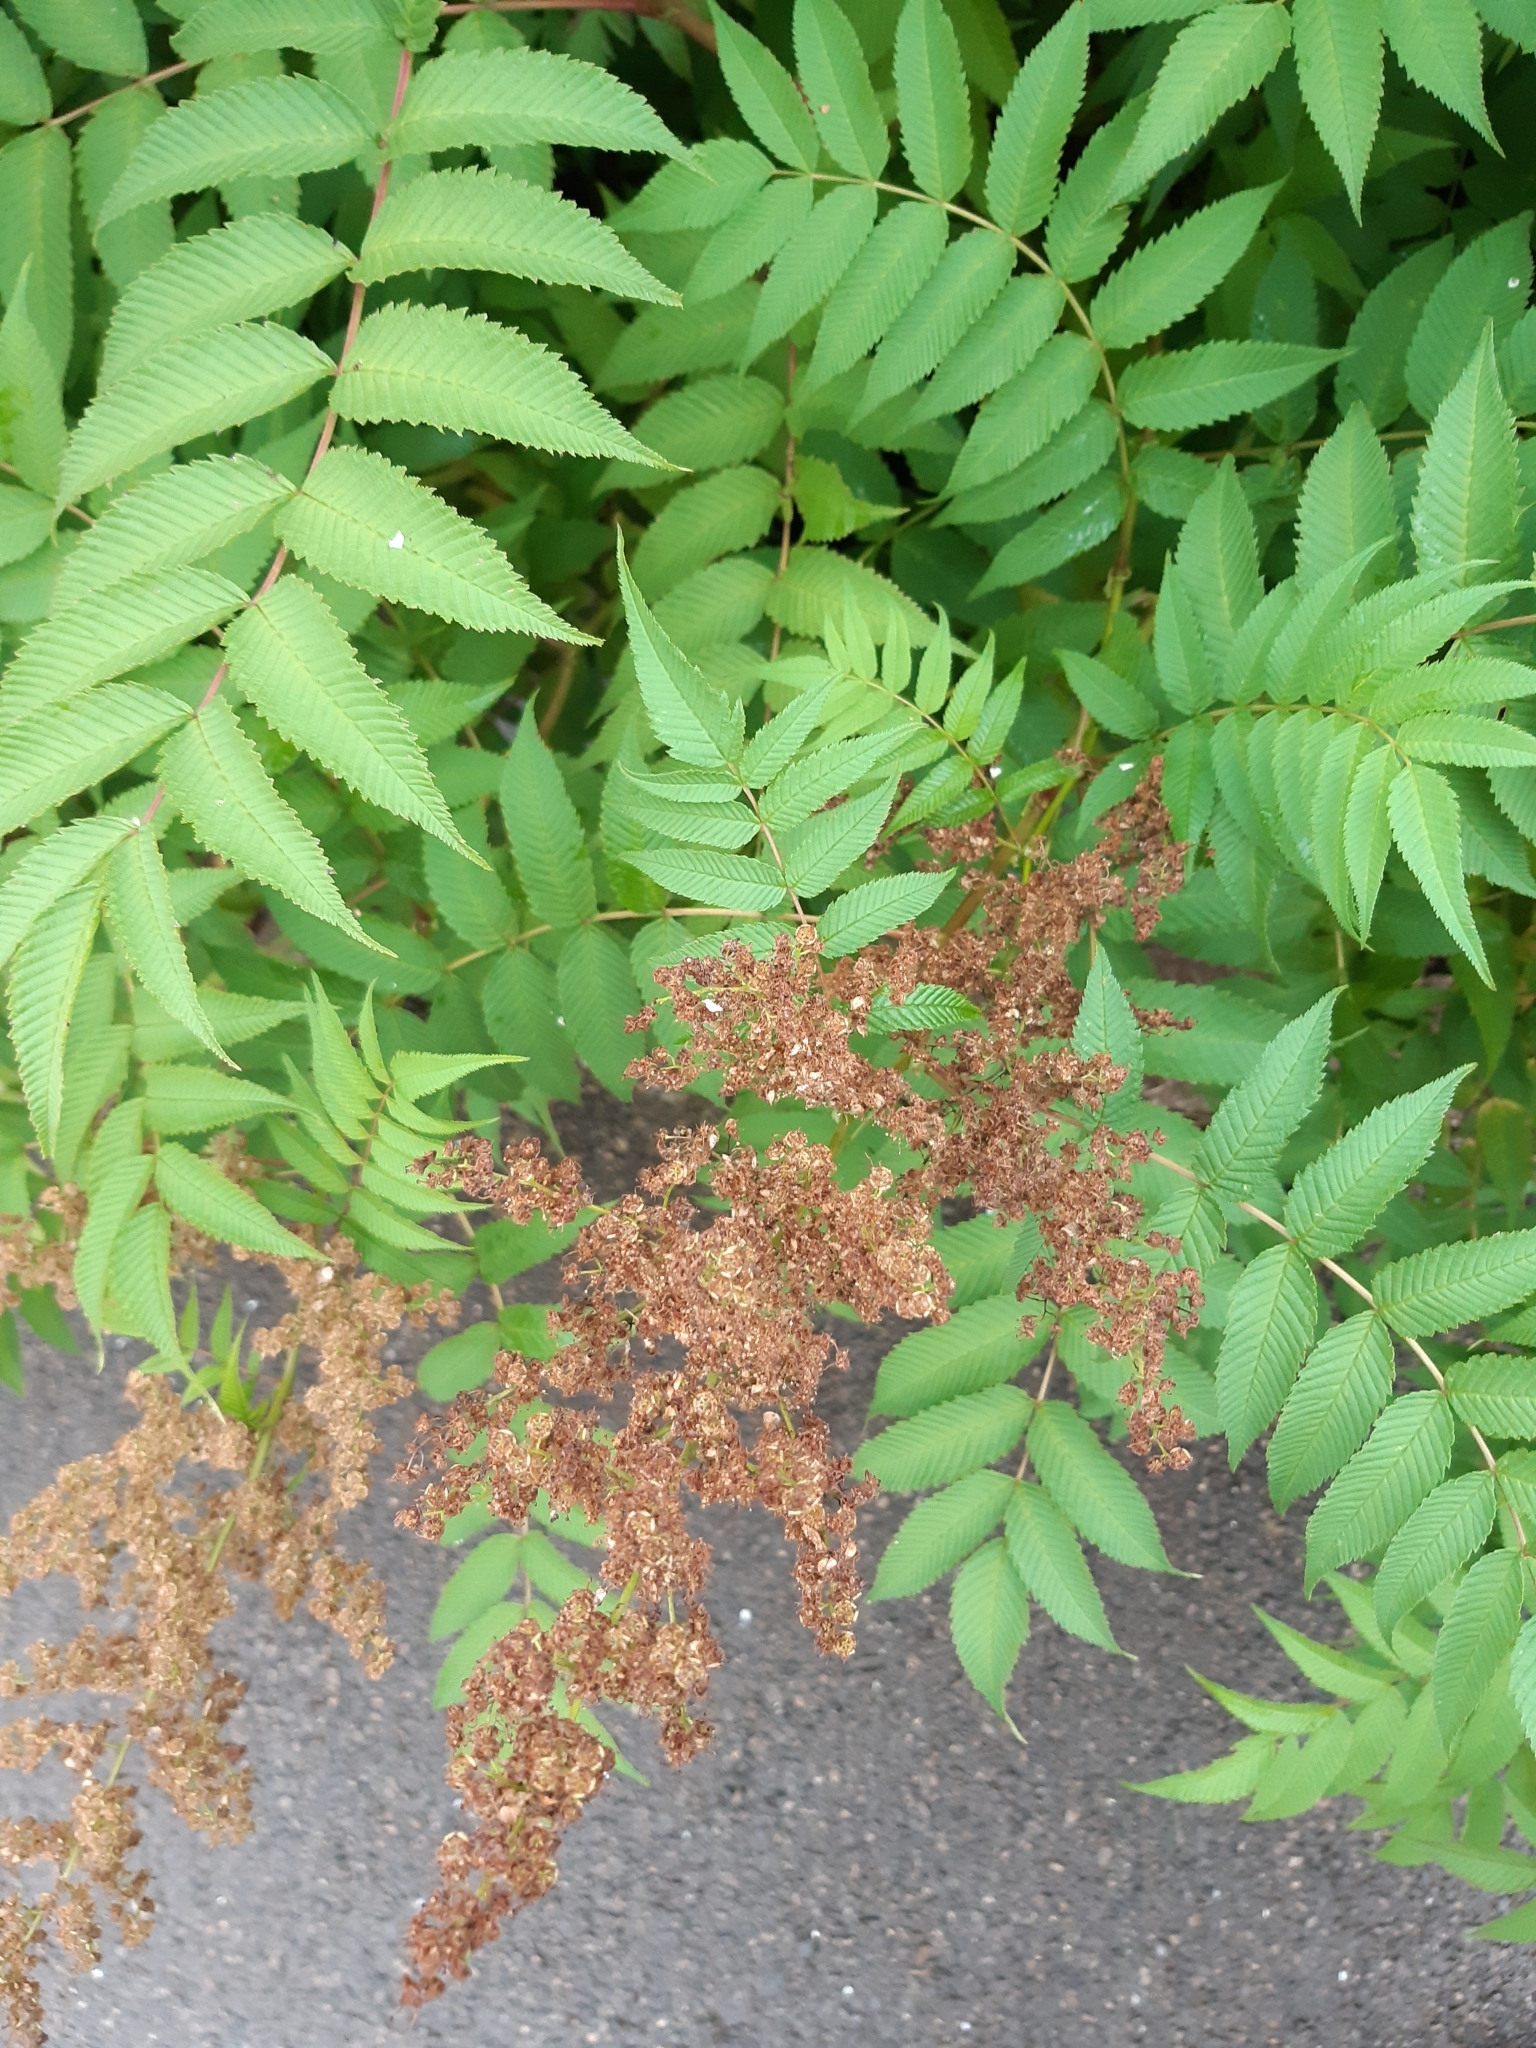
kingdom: Plantae
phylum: Tracheophyta
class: Magnoliopsida
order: Rosales
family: Rosaceae
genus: Sorbaria
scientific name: Sorbaria sorbifolia
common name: False spiraea
